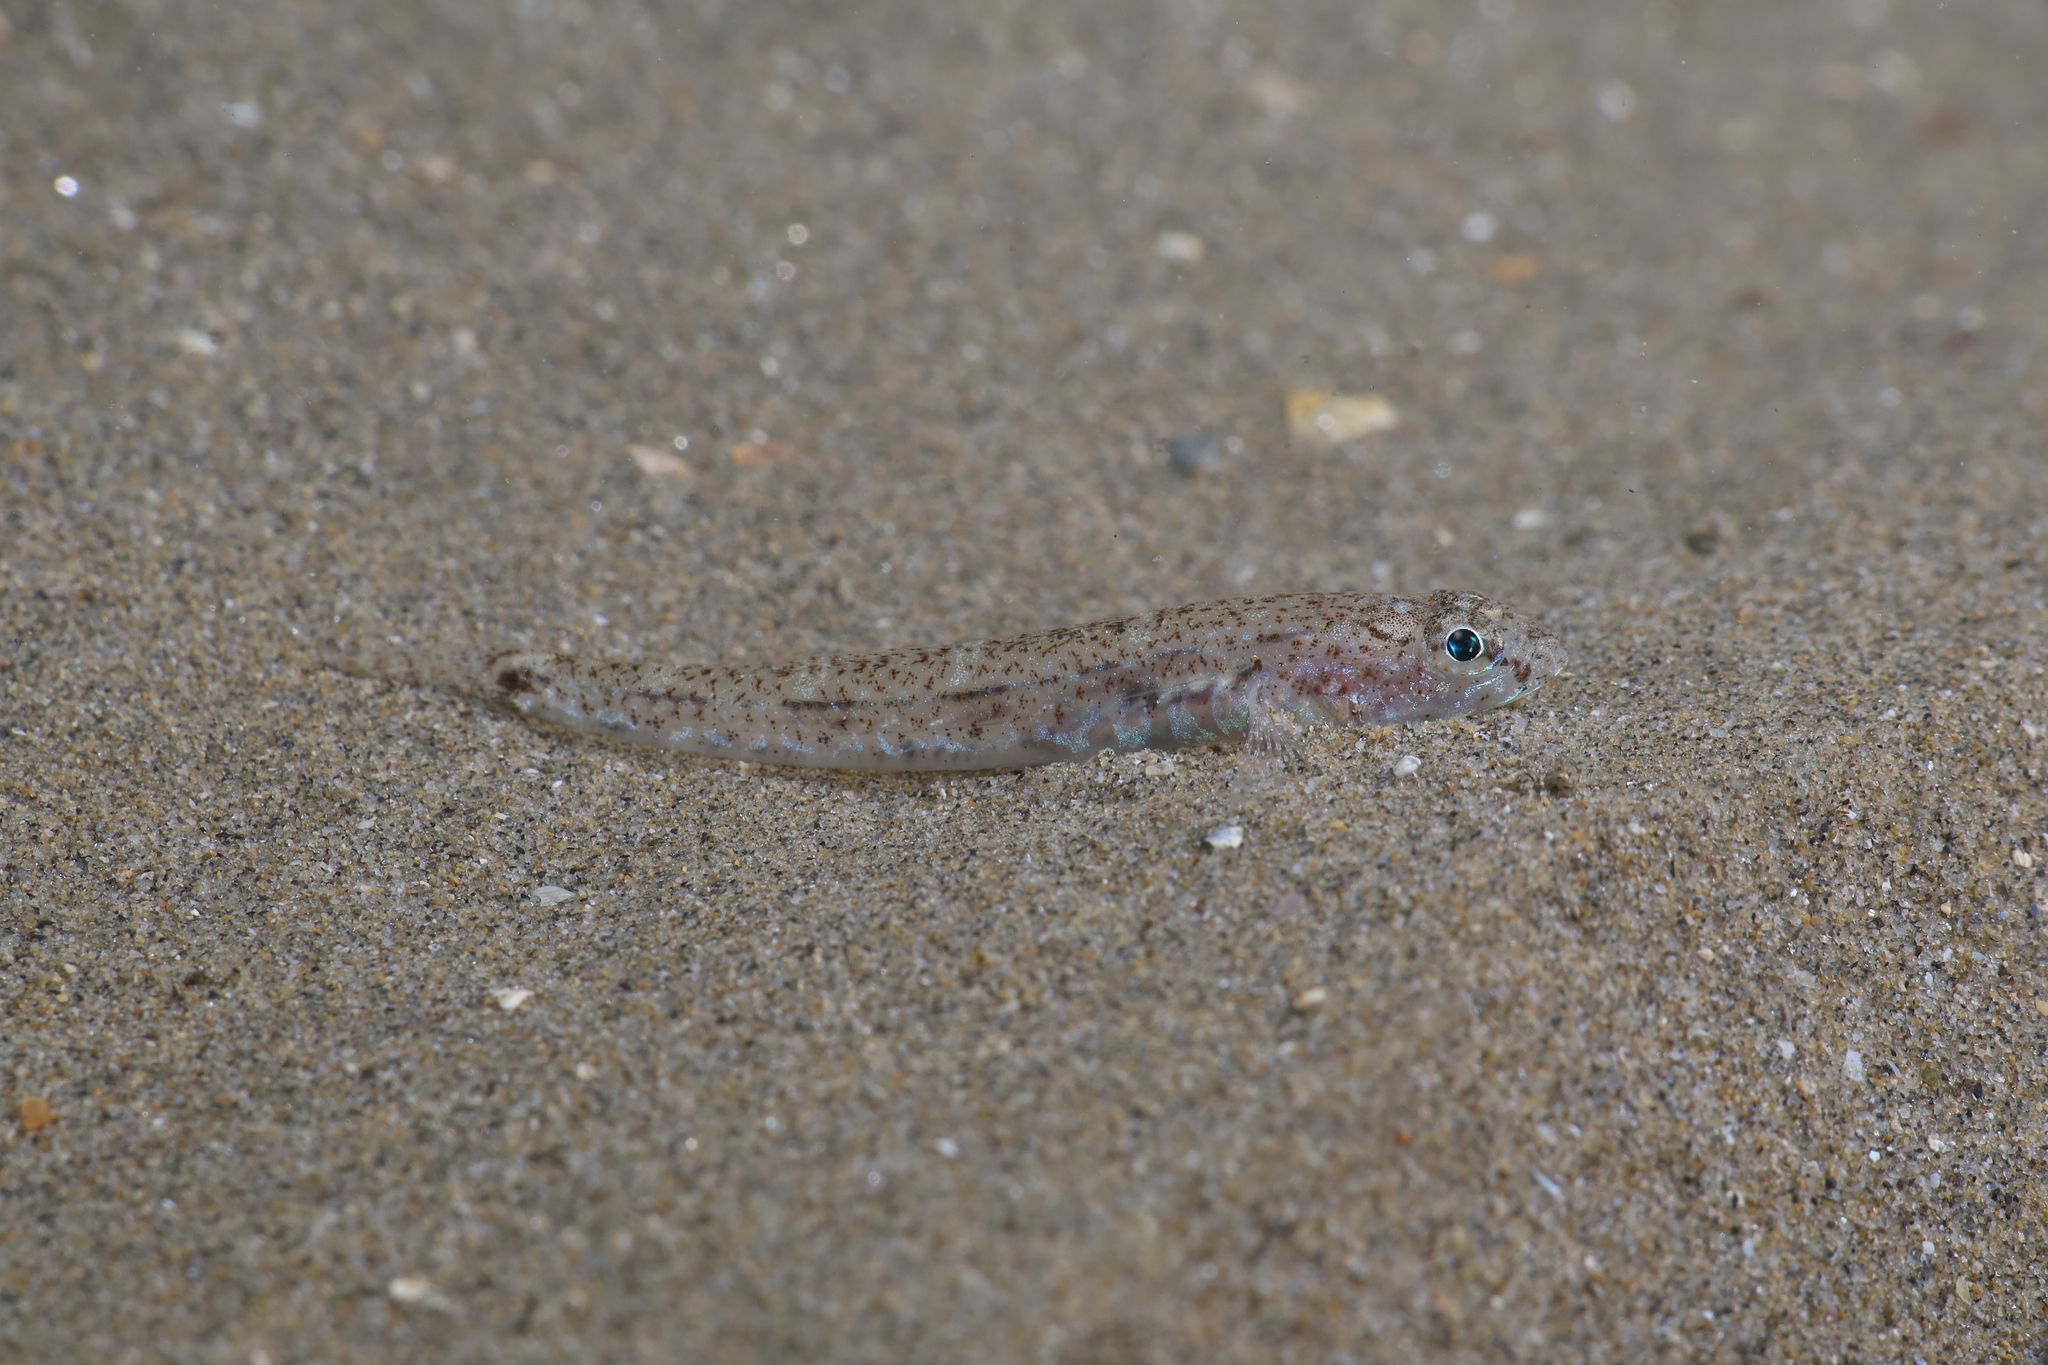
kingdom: Animalia
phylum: Chordata
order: Perciformes
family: Gobiidae
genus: Pomatoschistus
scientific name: Pomatoschistus marmoratus
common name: Marbled goby
